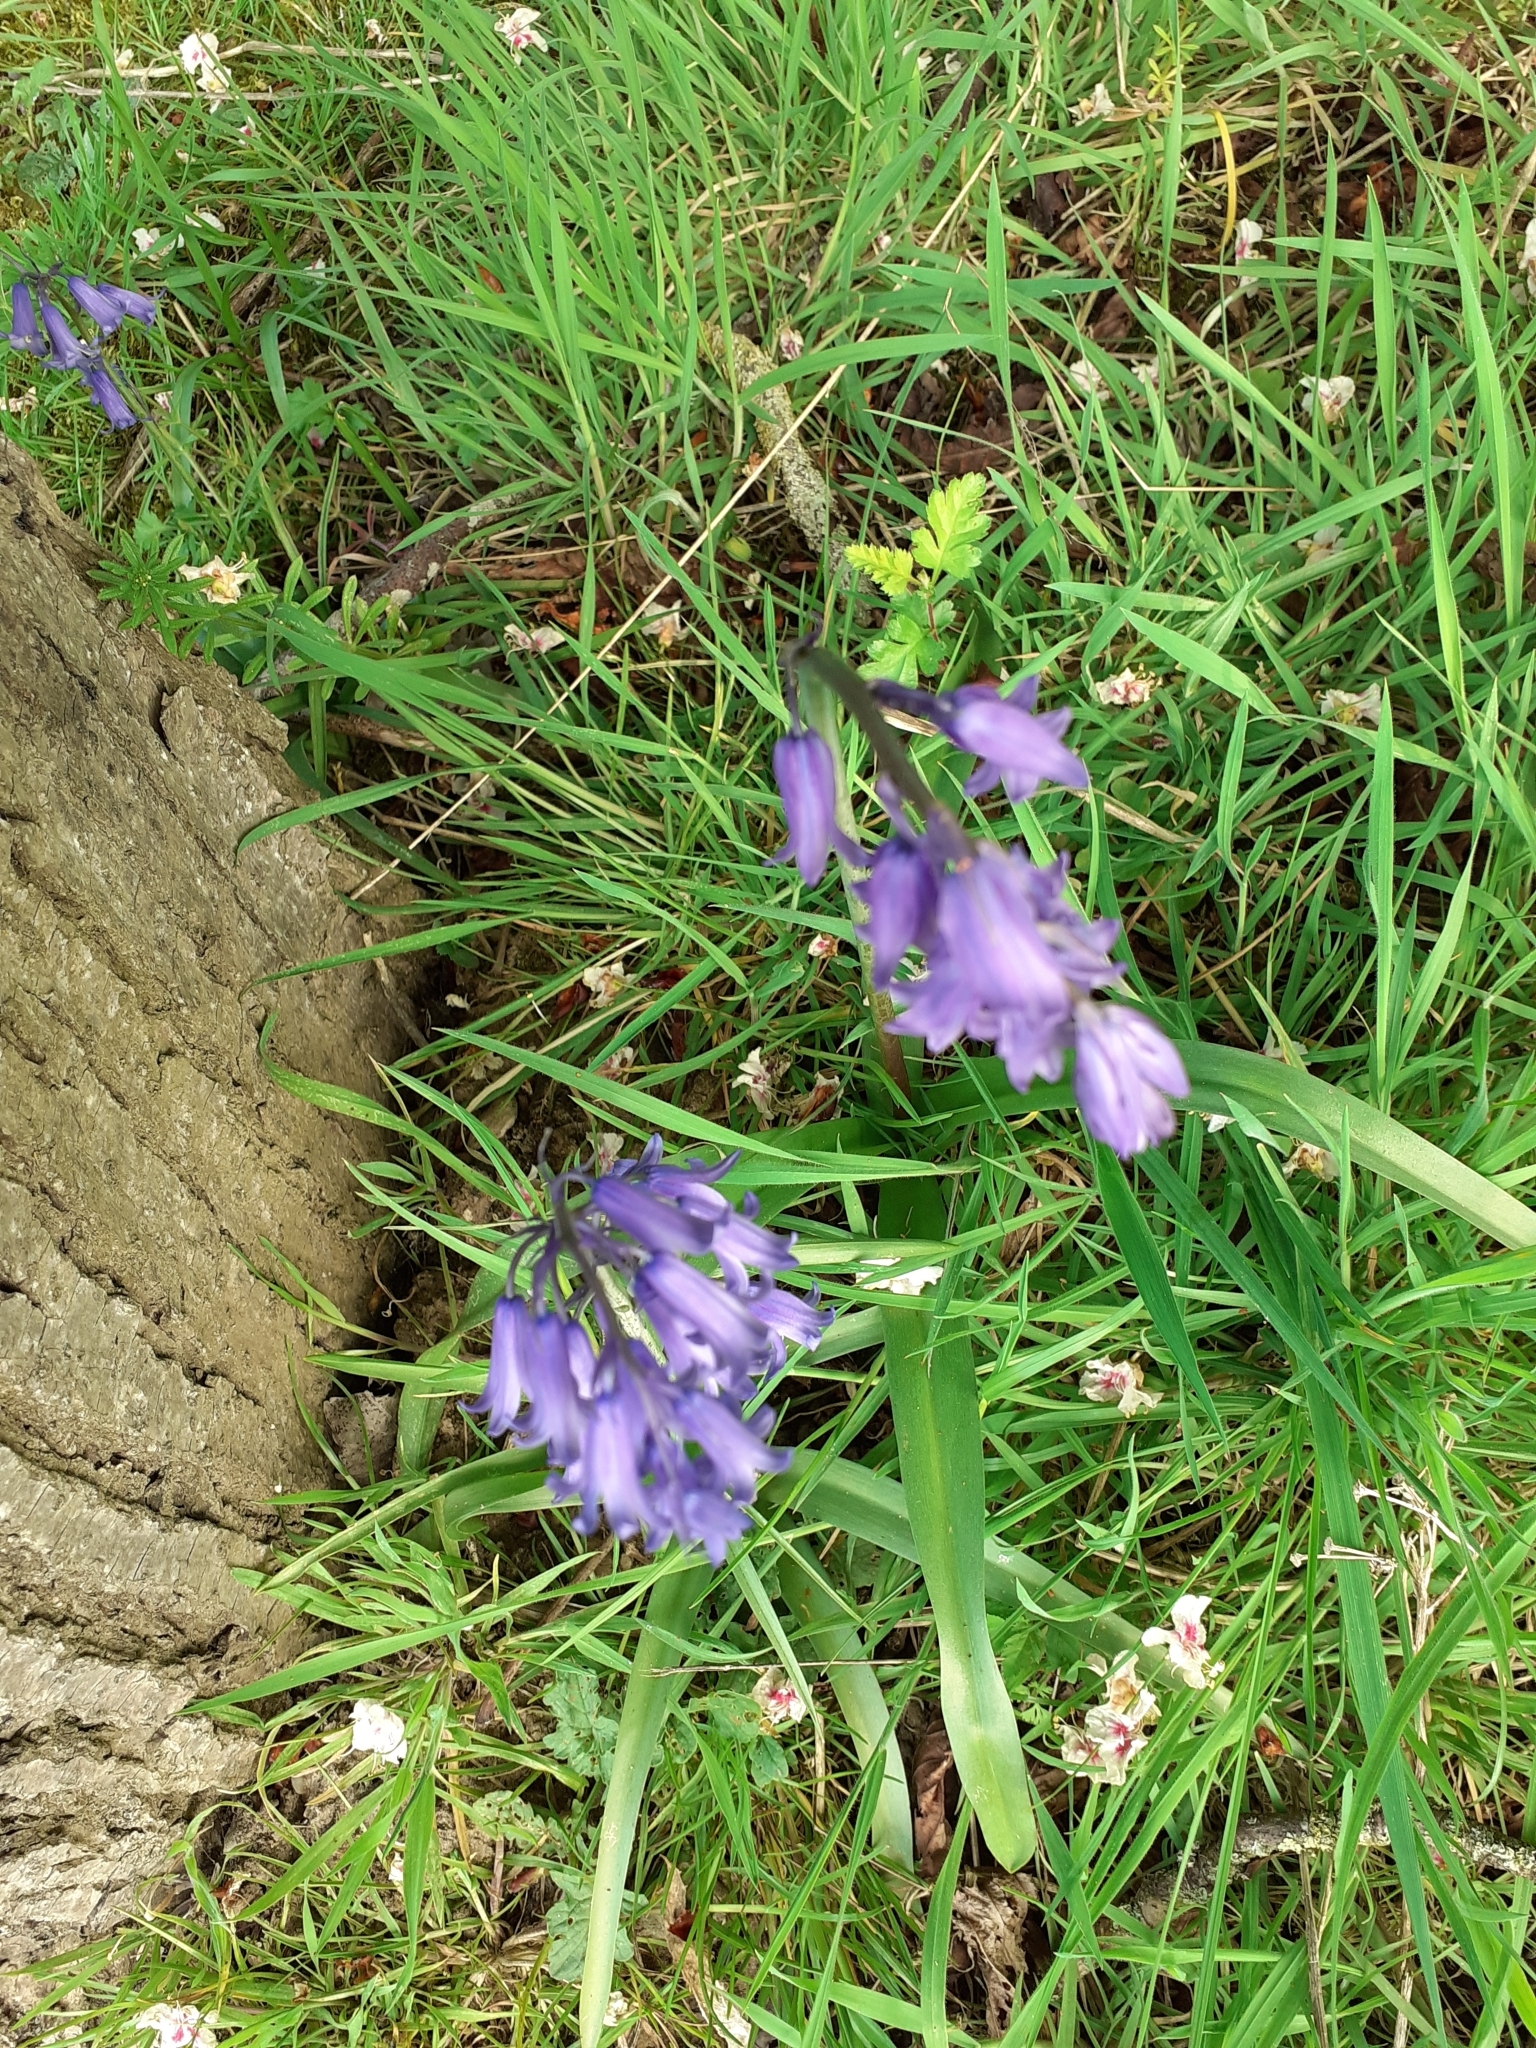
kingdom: Plantae
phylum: Tracheophyta
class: Liliopsida
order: Asparagales
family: Asparagaceae
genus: Hyacinthoides
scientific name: Hyacinthoides non-scripta
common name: Bluebell
